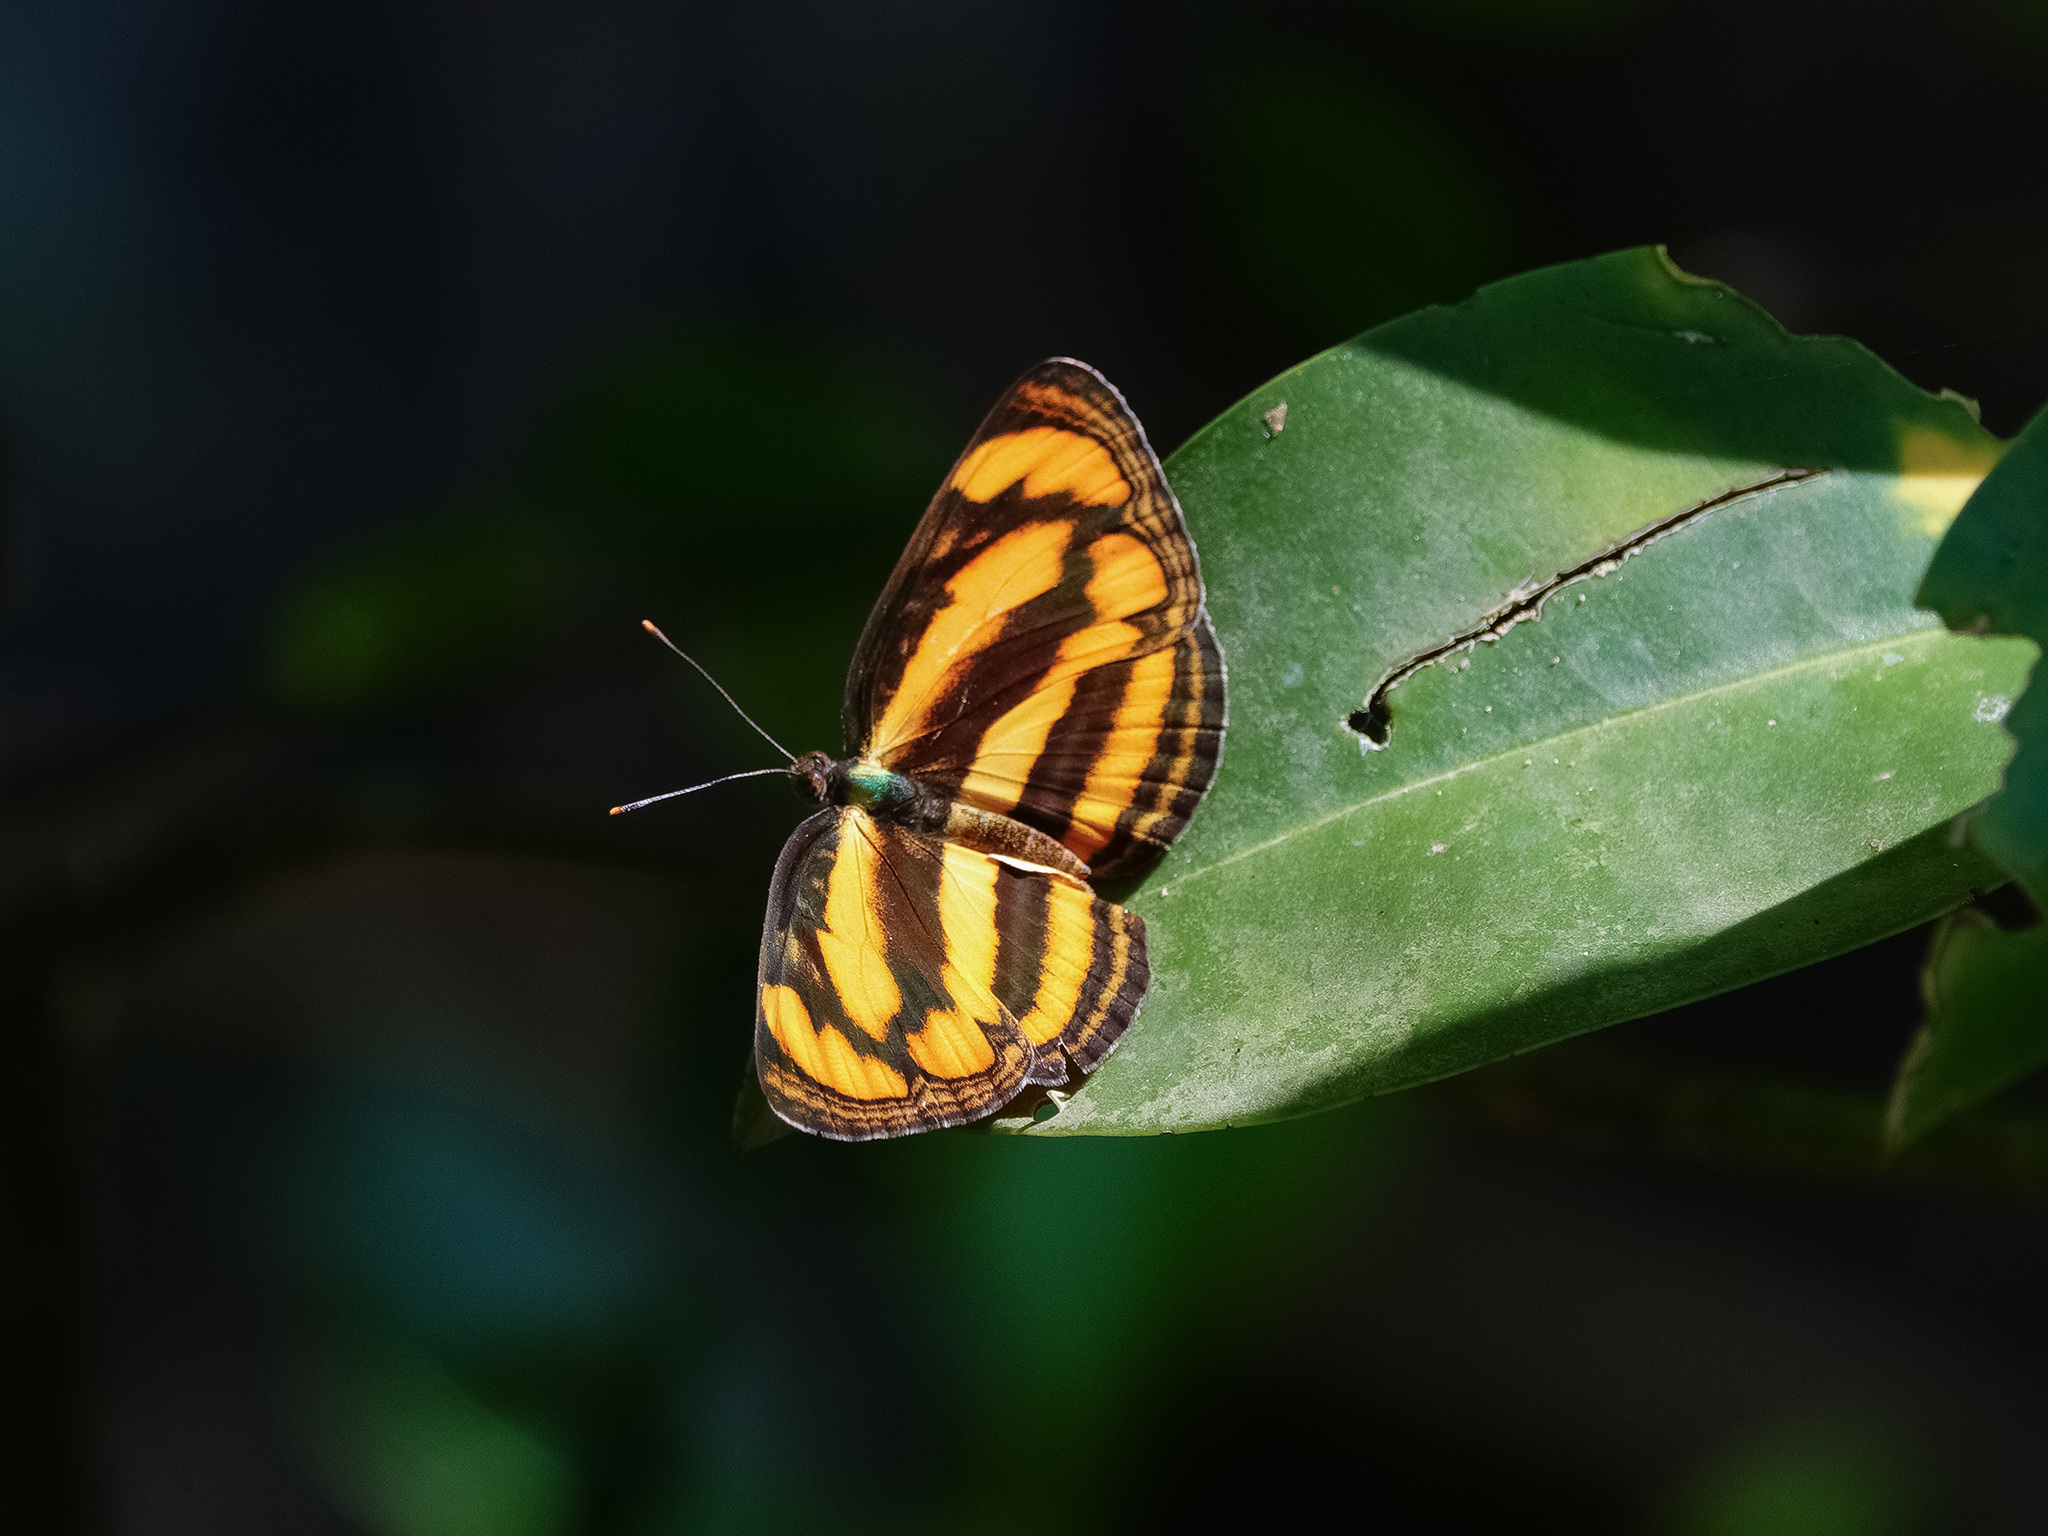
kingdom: Animalia
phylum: Arthropoda
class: Insecta
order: Lepidoptera
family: Nymphalidae
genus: Pantoporia
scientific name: Pantoporia paraka
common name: Perak lascar
